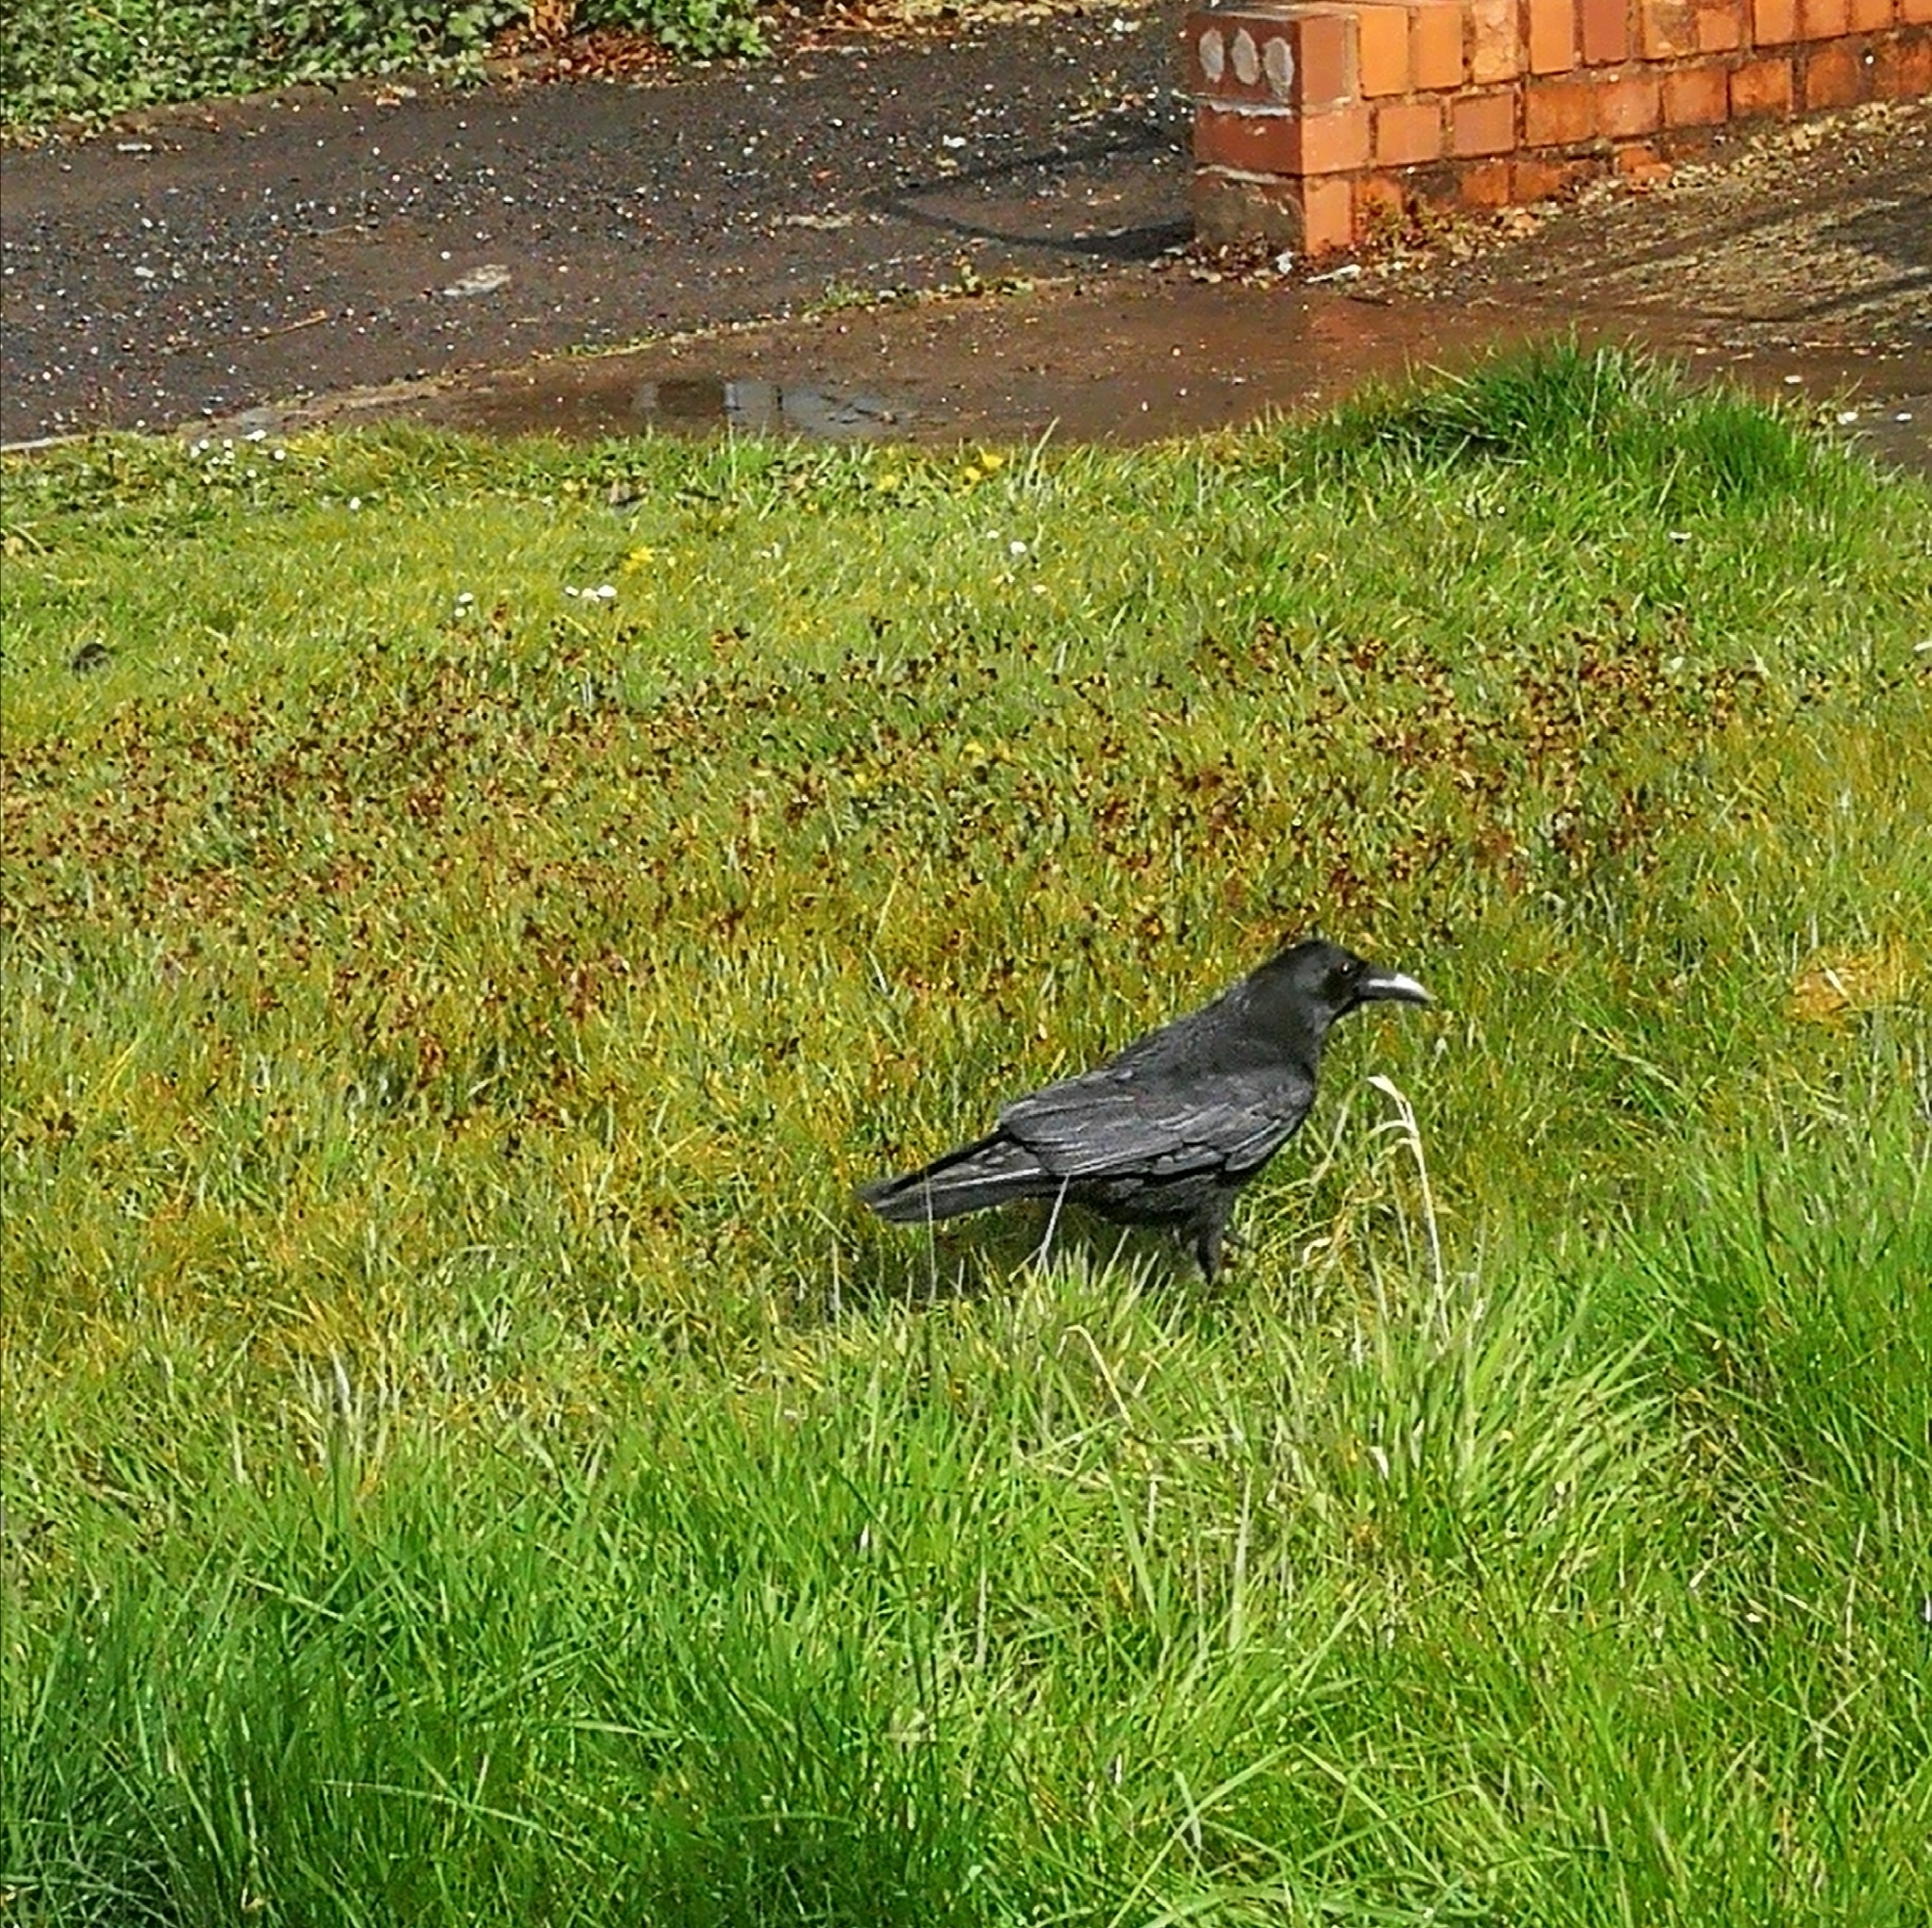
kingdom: Animalia
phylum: Chordata
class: Aves
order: Passeriformes
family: Corvidae
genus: Corvus
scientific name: Corvus corone
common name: Carrion crow
